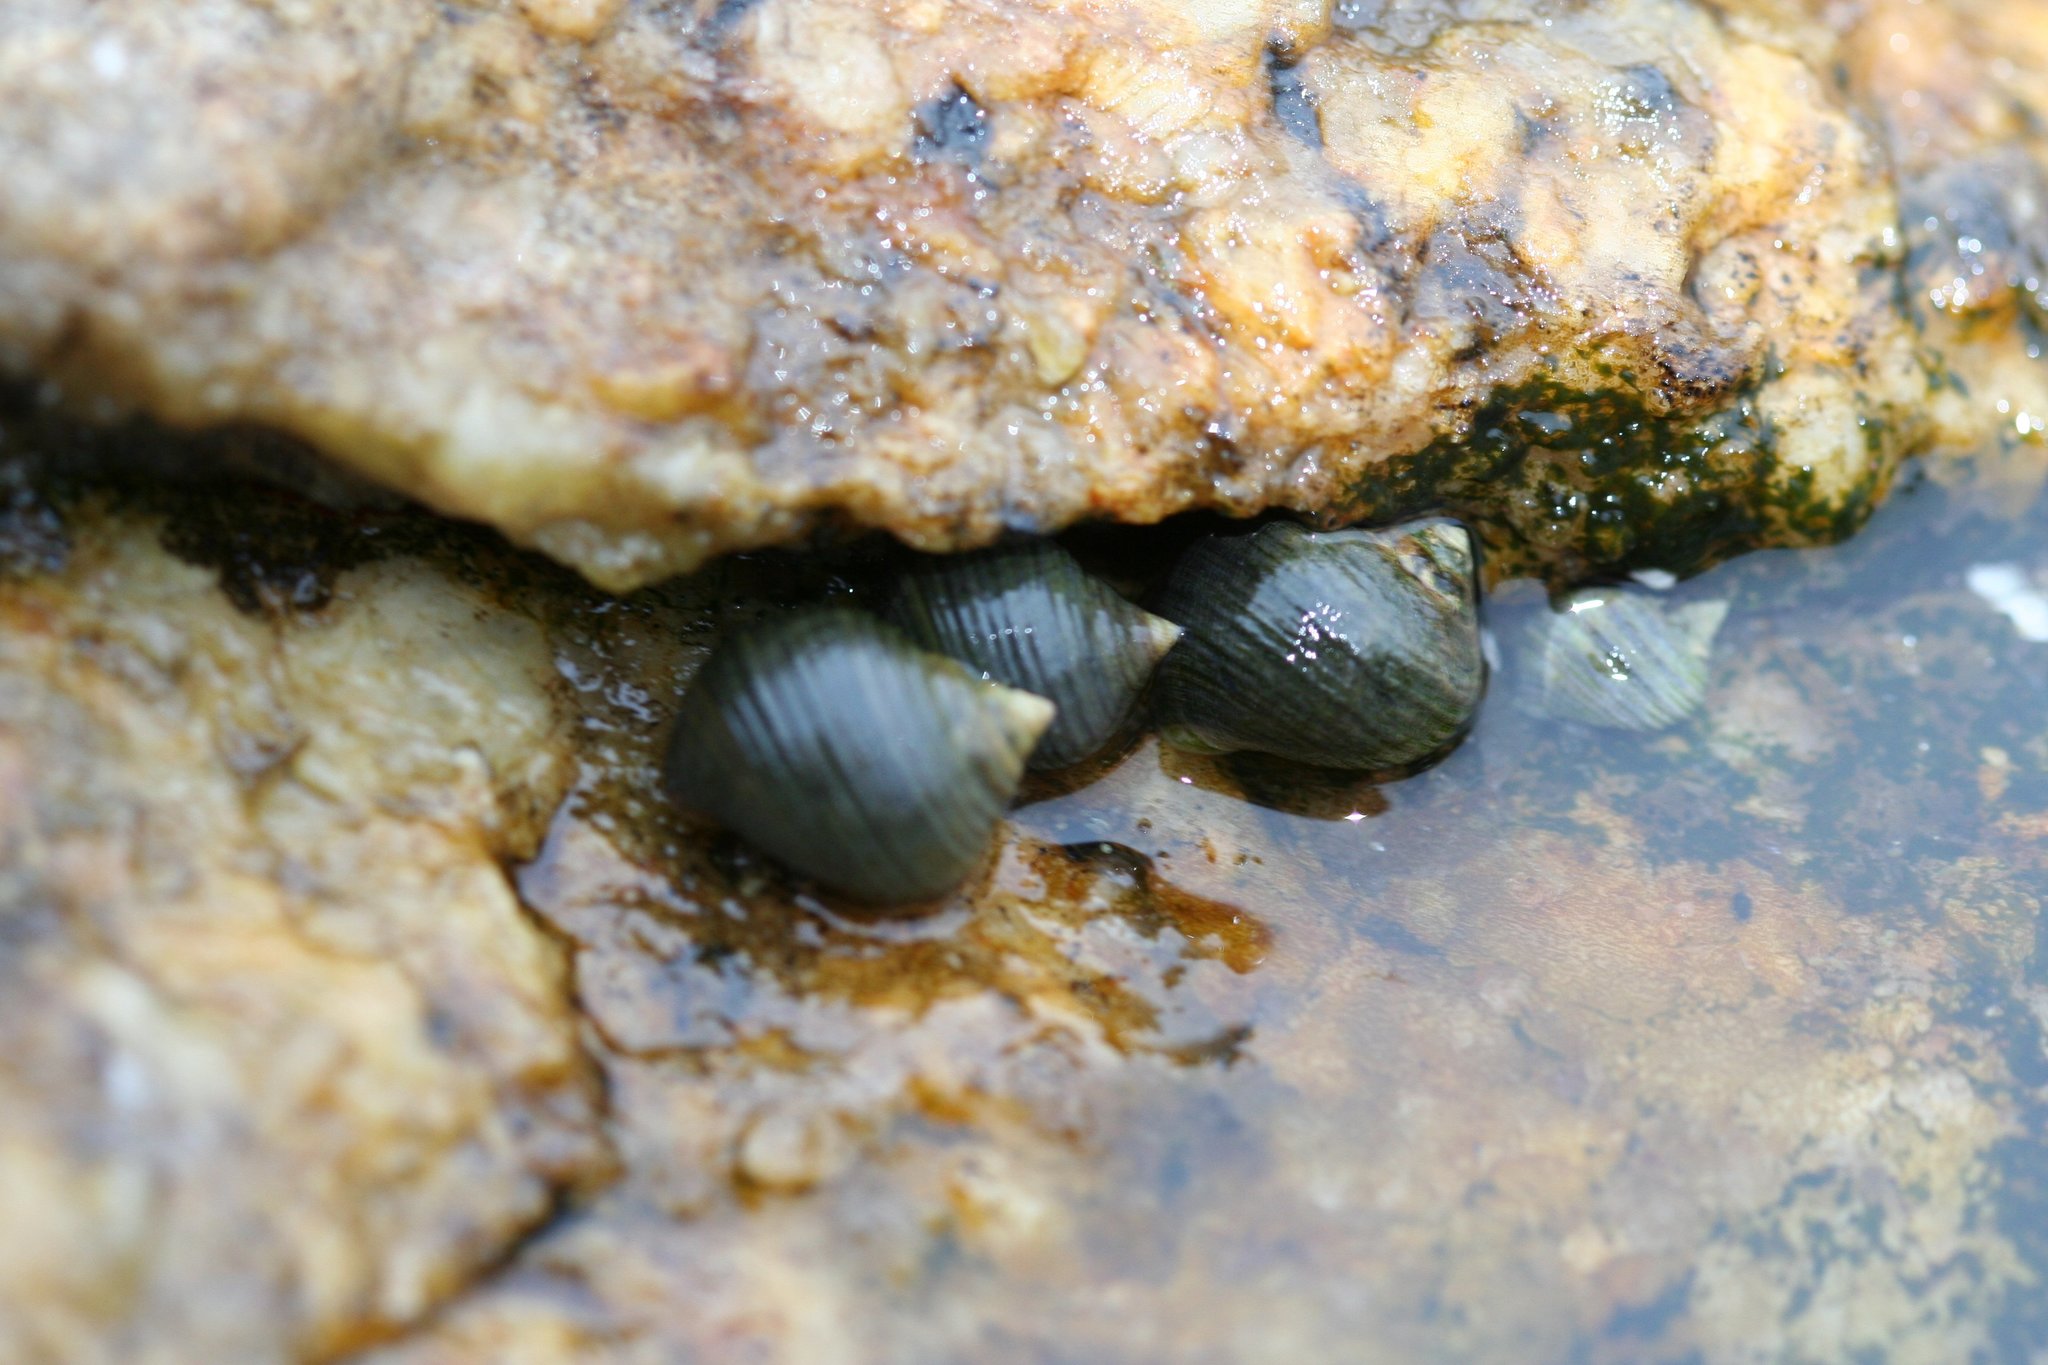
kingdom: Animalia
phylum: Mollusca
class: Gastropoda
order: Littorinimorpha
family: Littorinidae
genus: Littorina
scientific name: Littorina littorea
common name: Common periwinkle
